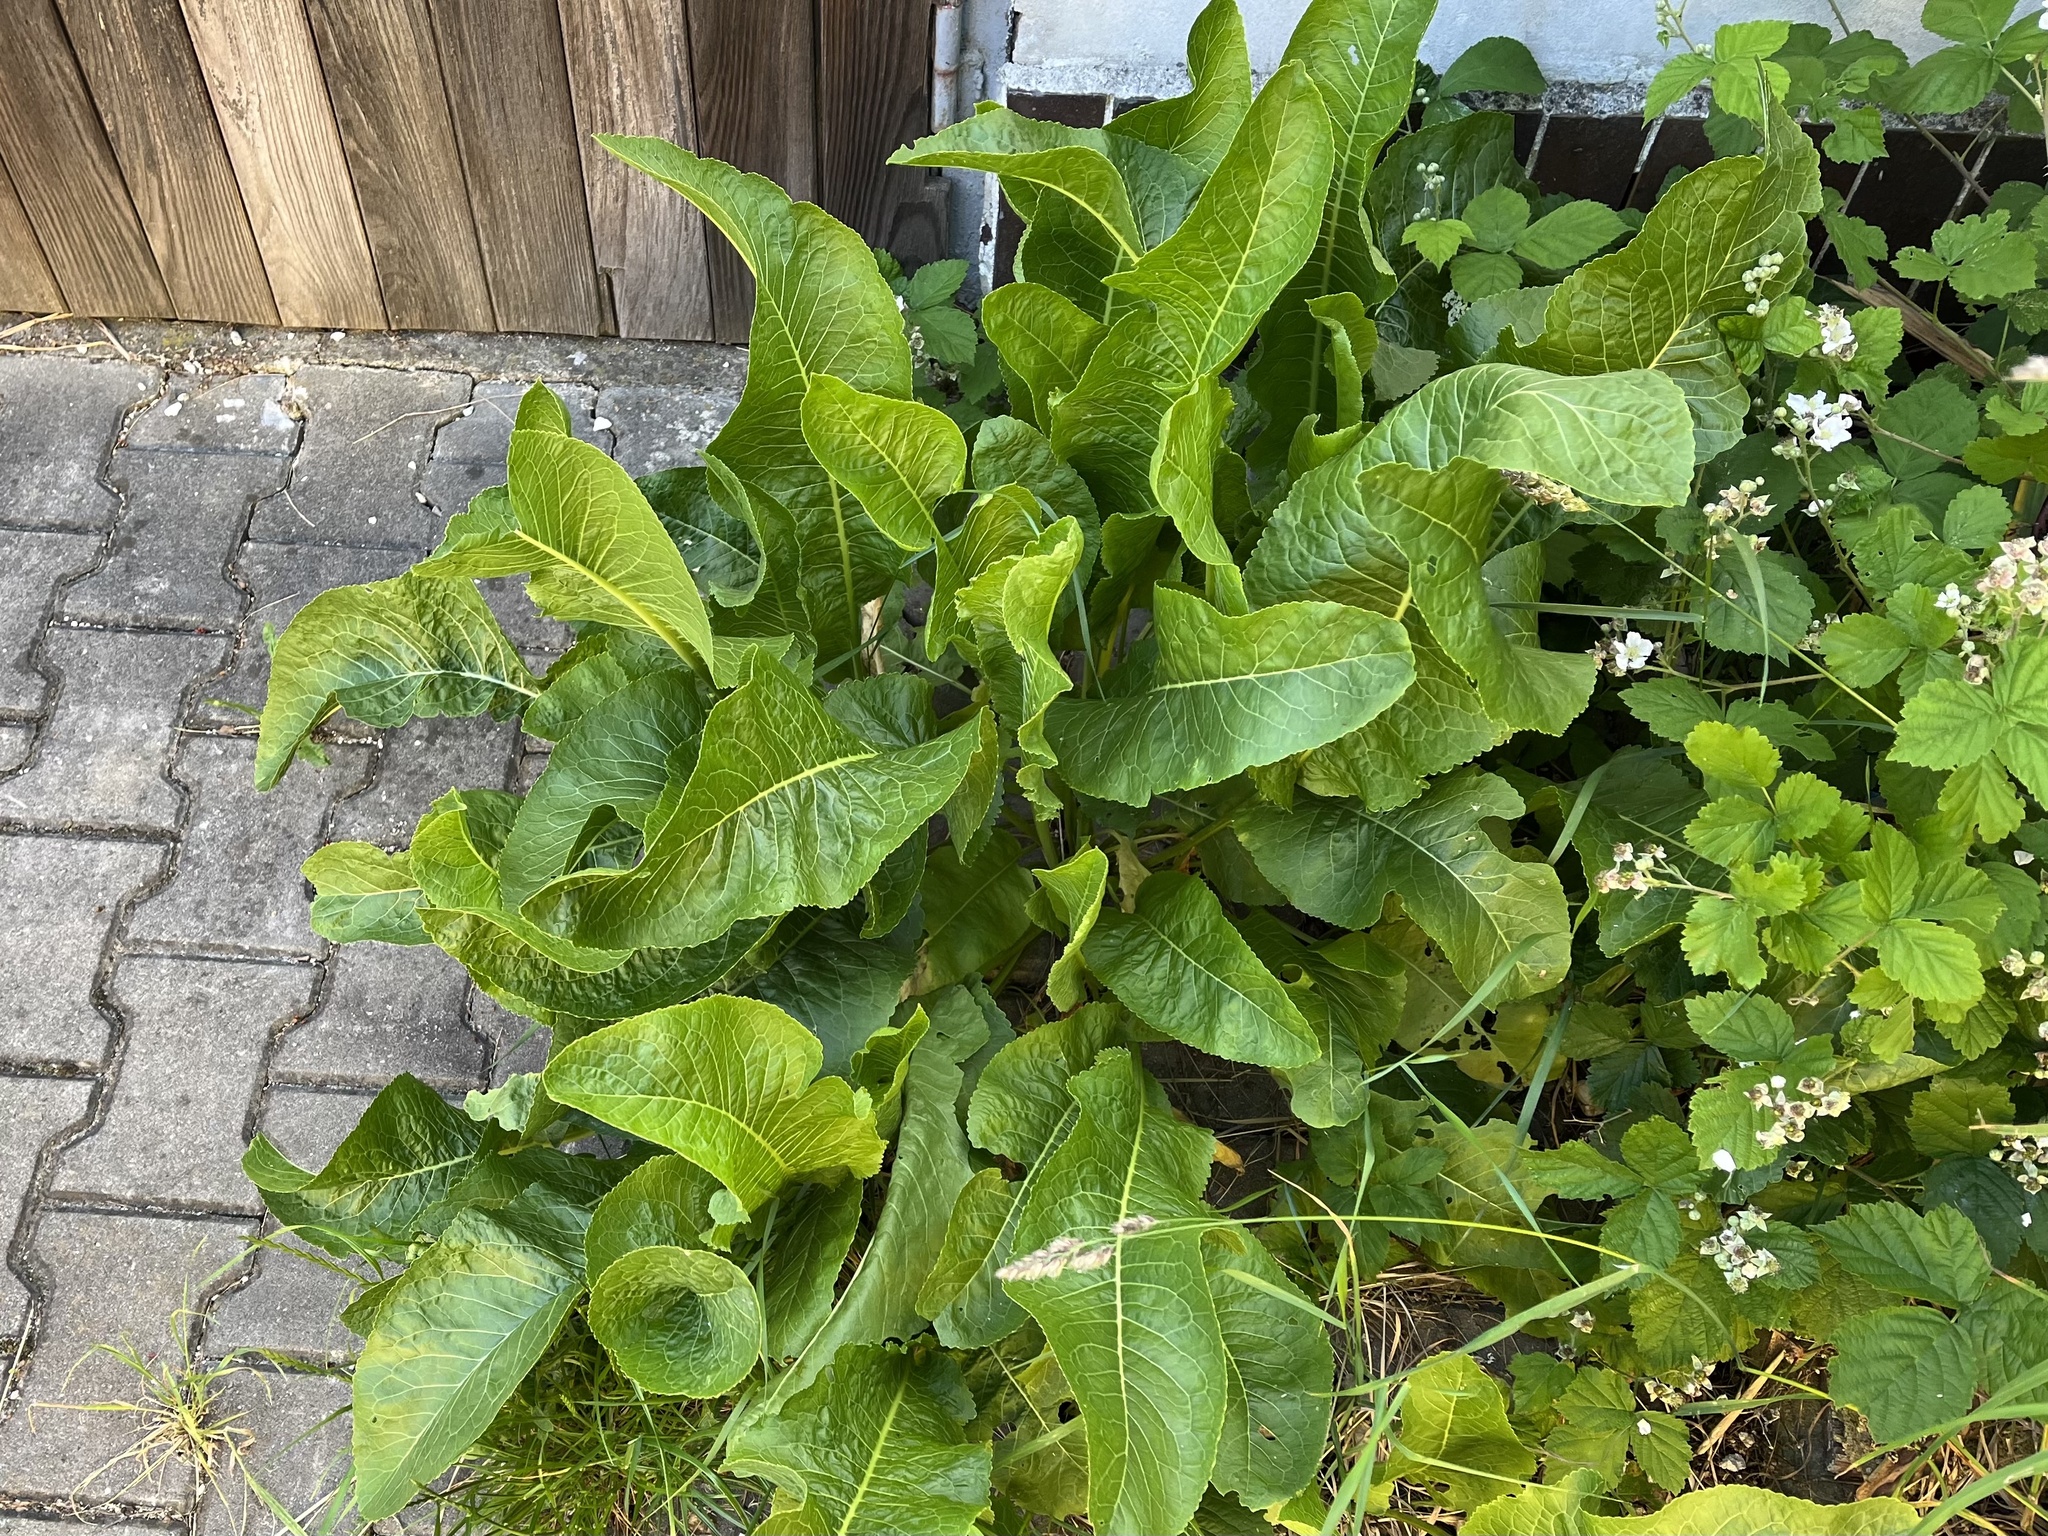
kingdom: Plantae
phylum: Tracheophyta
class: Magnoliopsida
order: Brassicales
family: Brassicaceae
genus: Armoracia
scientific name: Armoracia rusticana
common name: Horseradish
